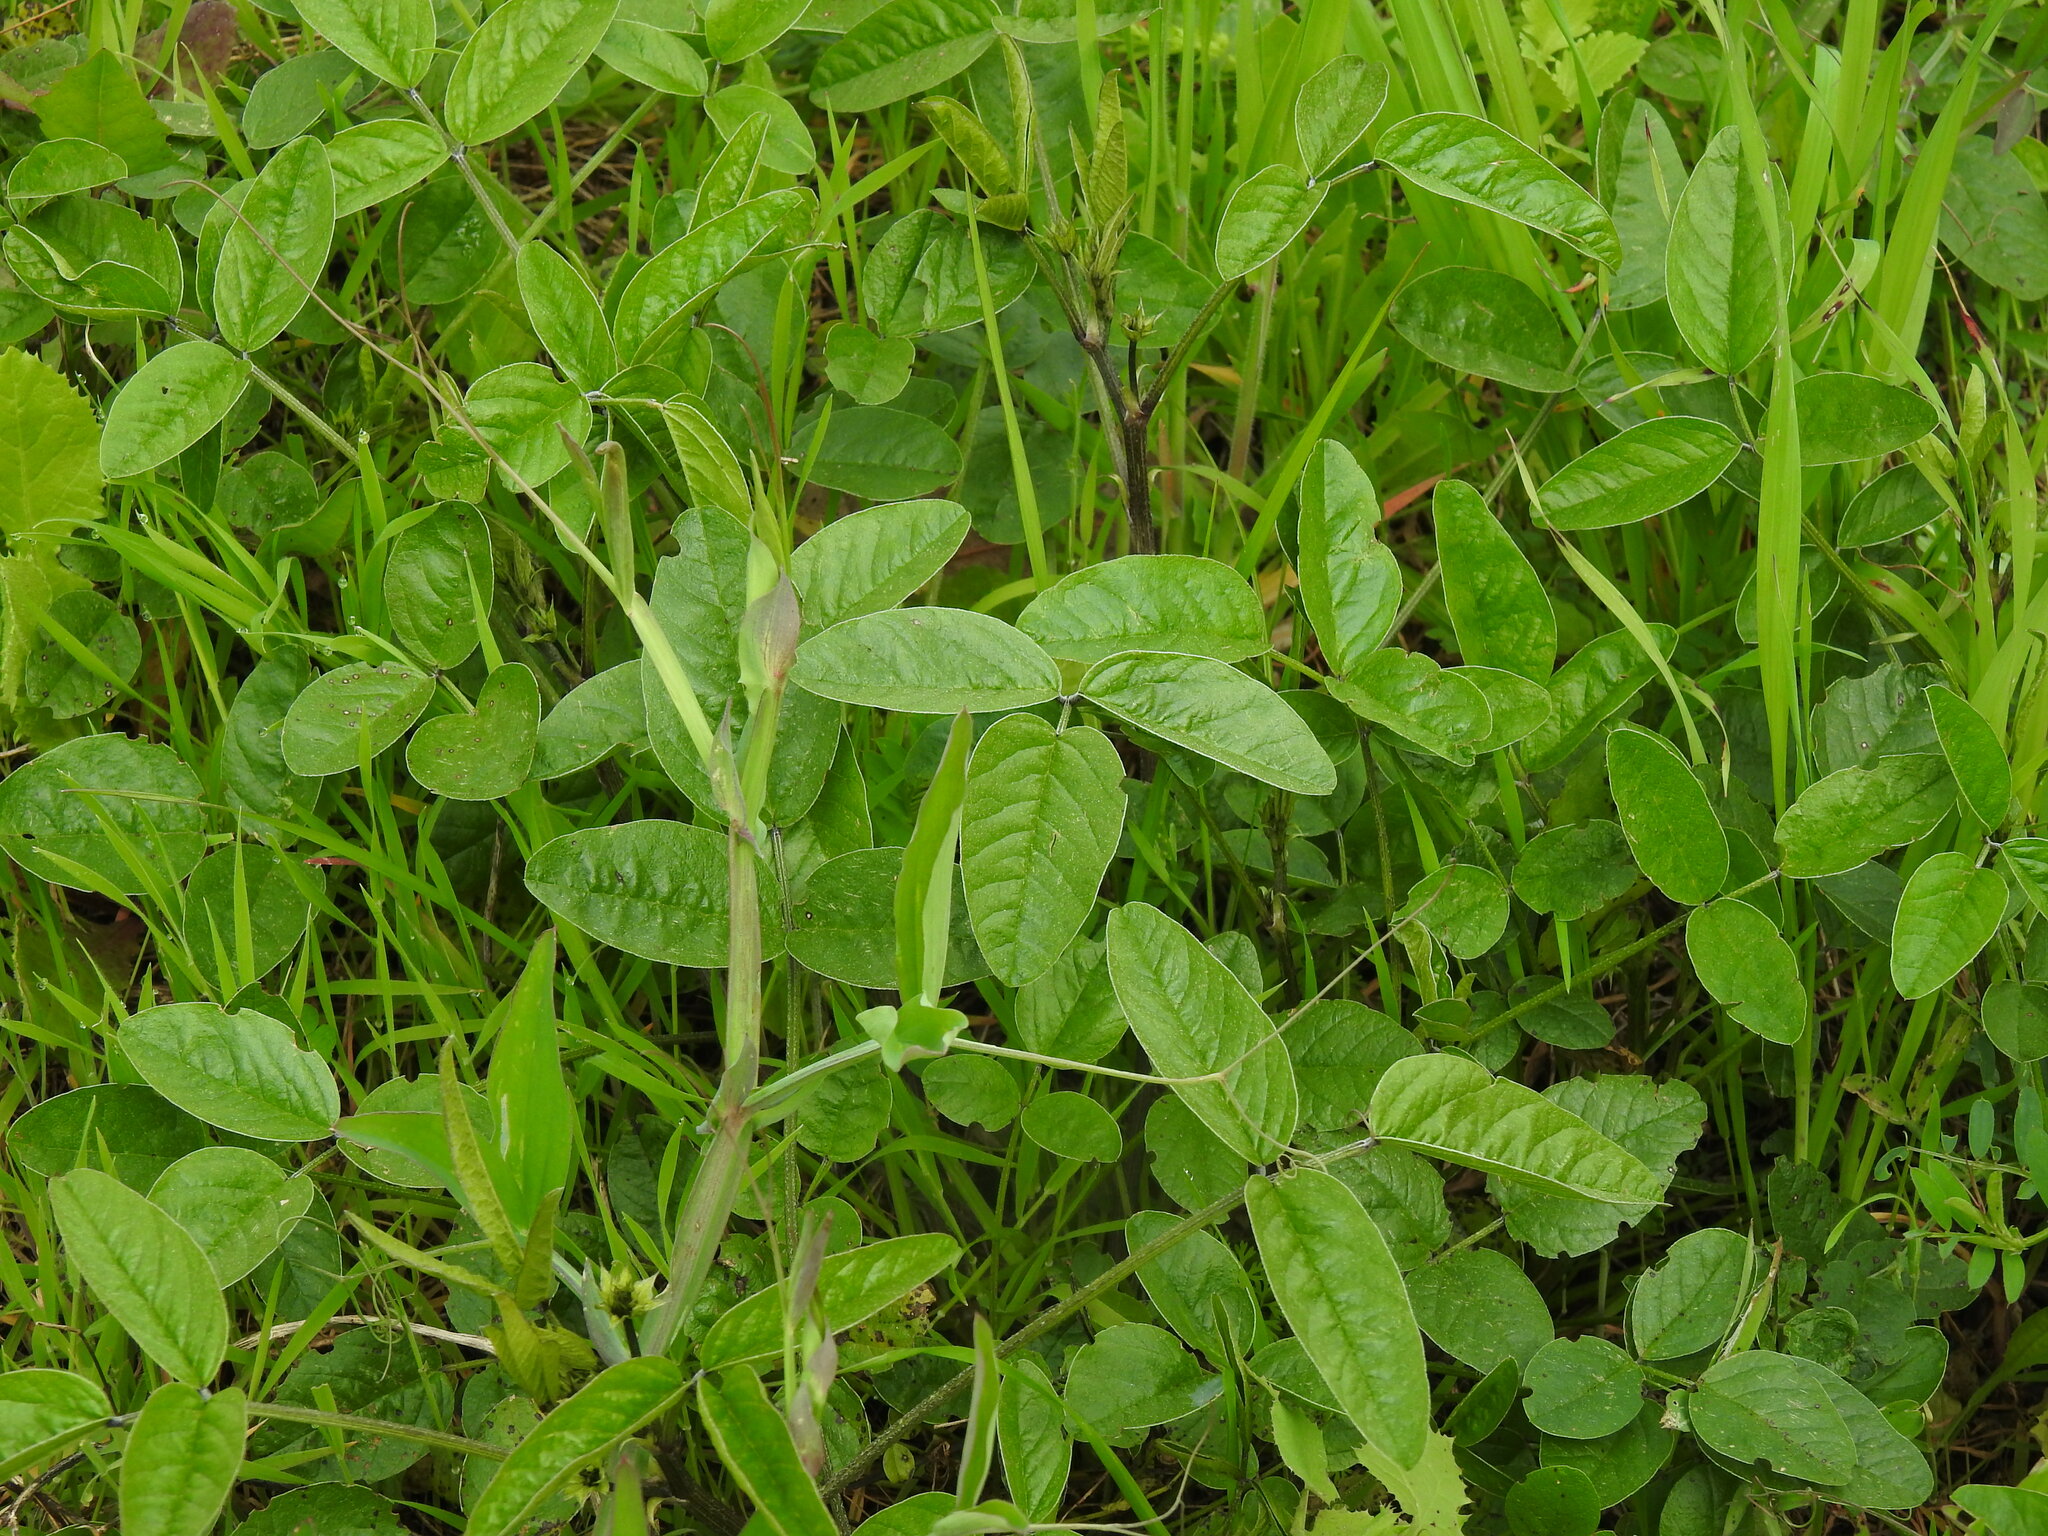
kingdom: Plantae
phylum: Tracheophyta
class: Magnoliopsida
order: Fabales
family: Fabaceae
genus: Bituminaria
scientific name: Bituminaria bituminosa
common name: Arabian pea
